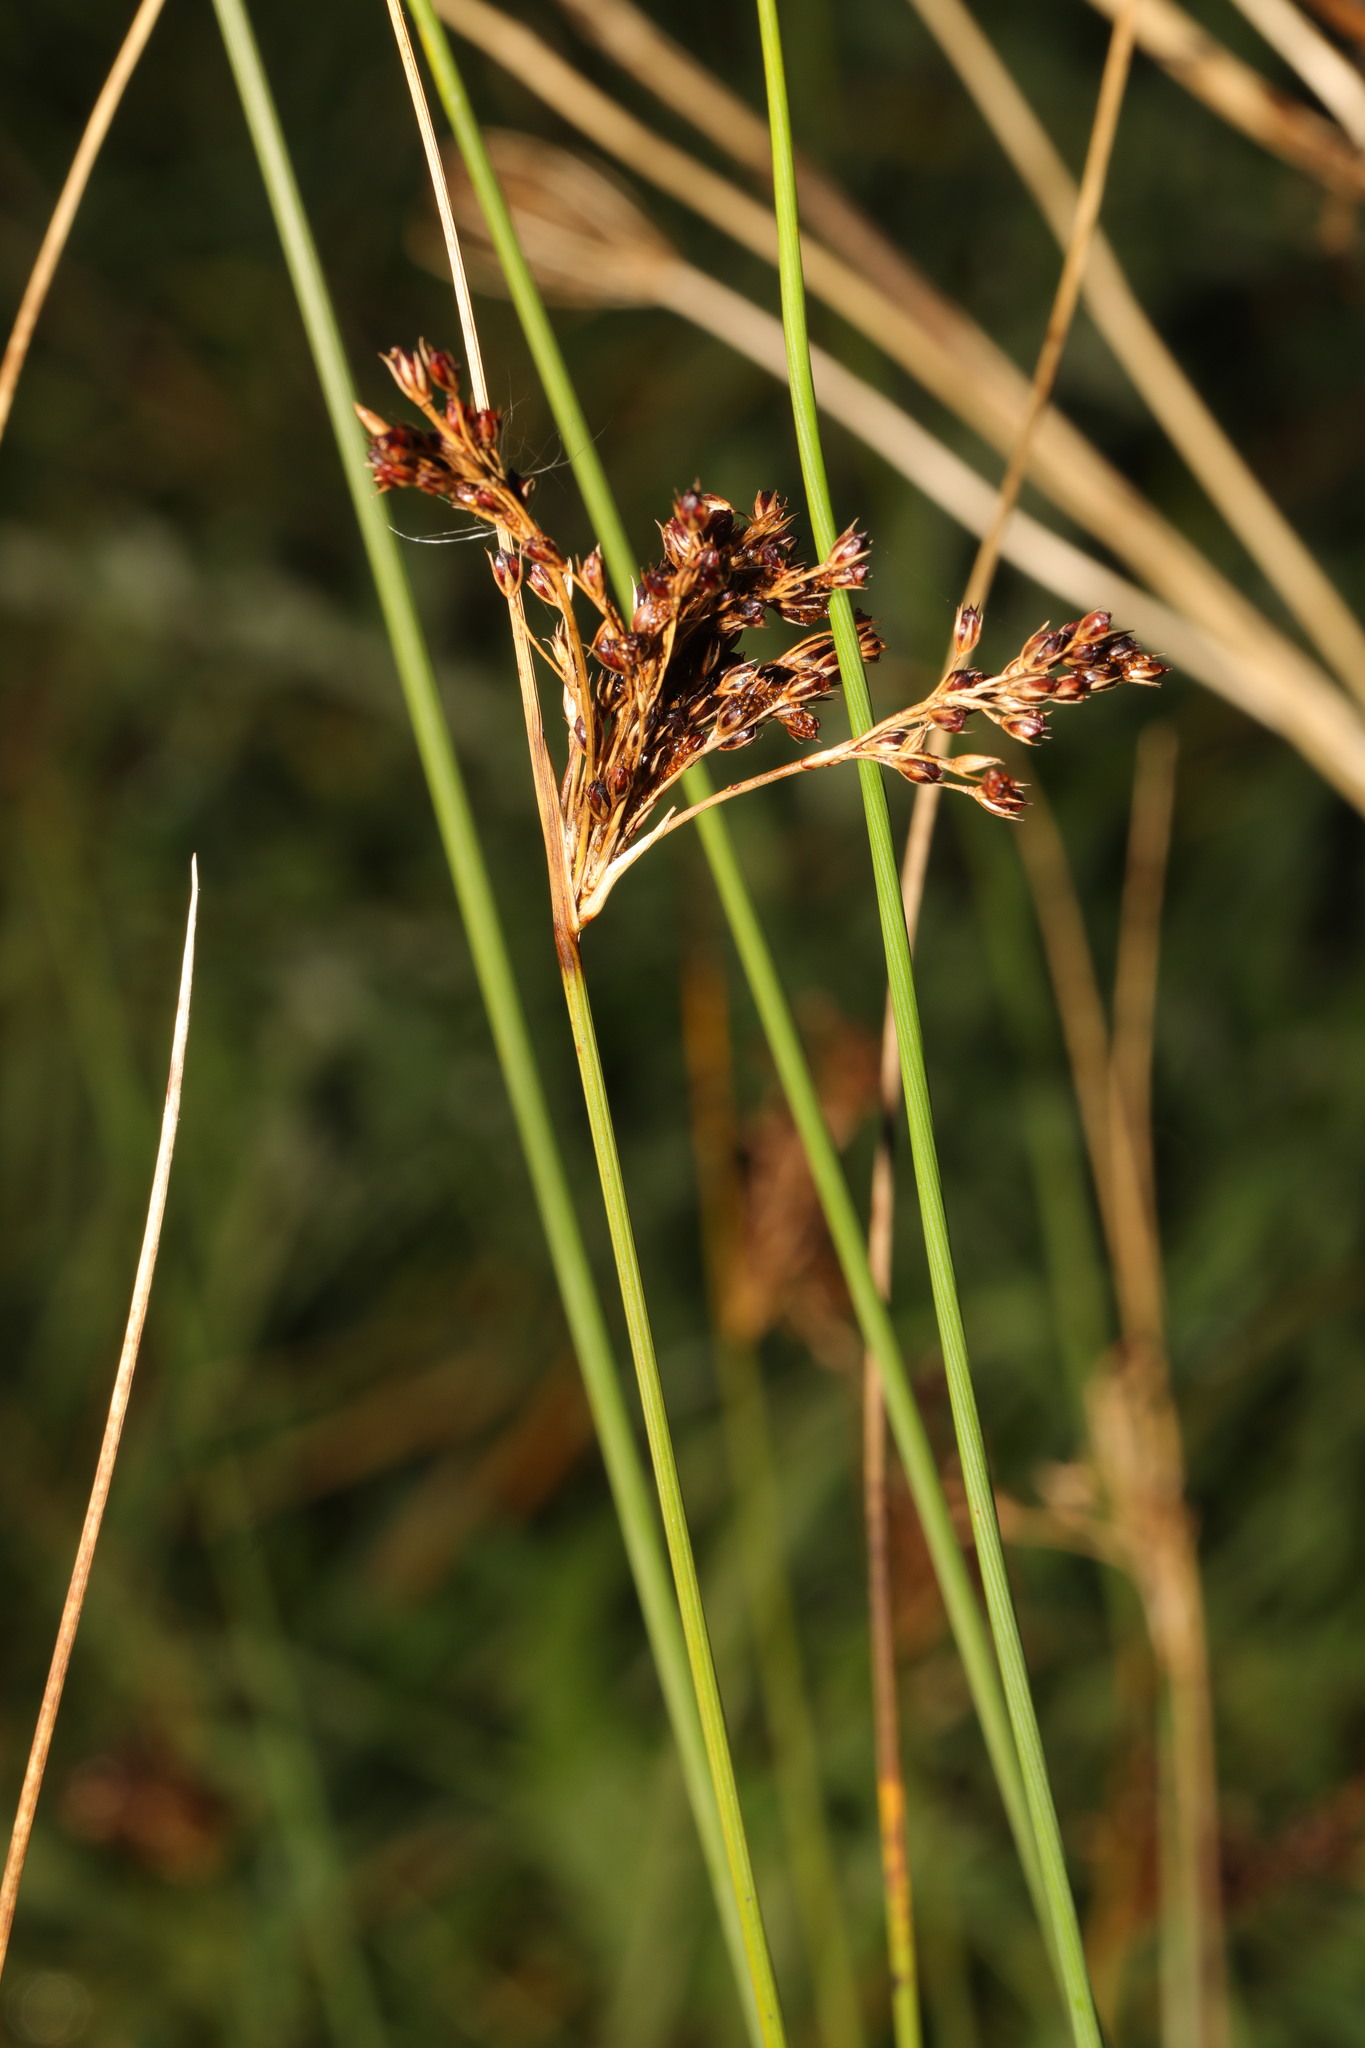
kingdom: Plantae
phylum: Tracheophyta
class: Liliopsida
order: Poales
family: Juncaceae
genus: Juncus
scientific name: Juncus inflexus
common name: Hard rush
